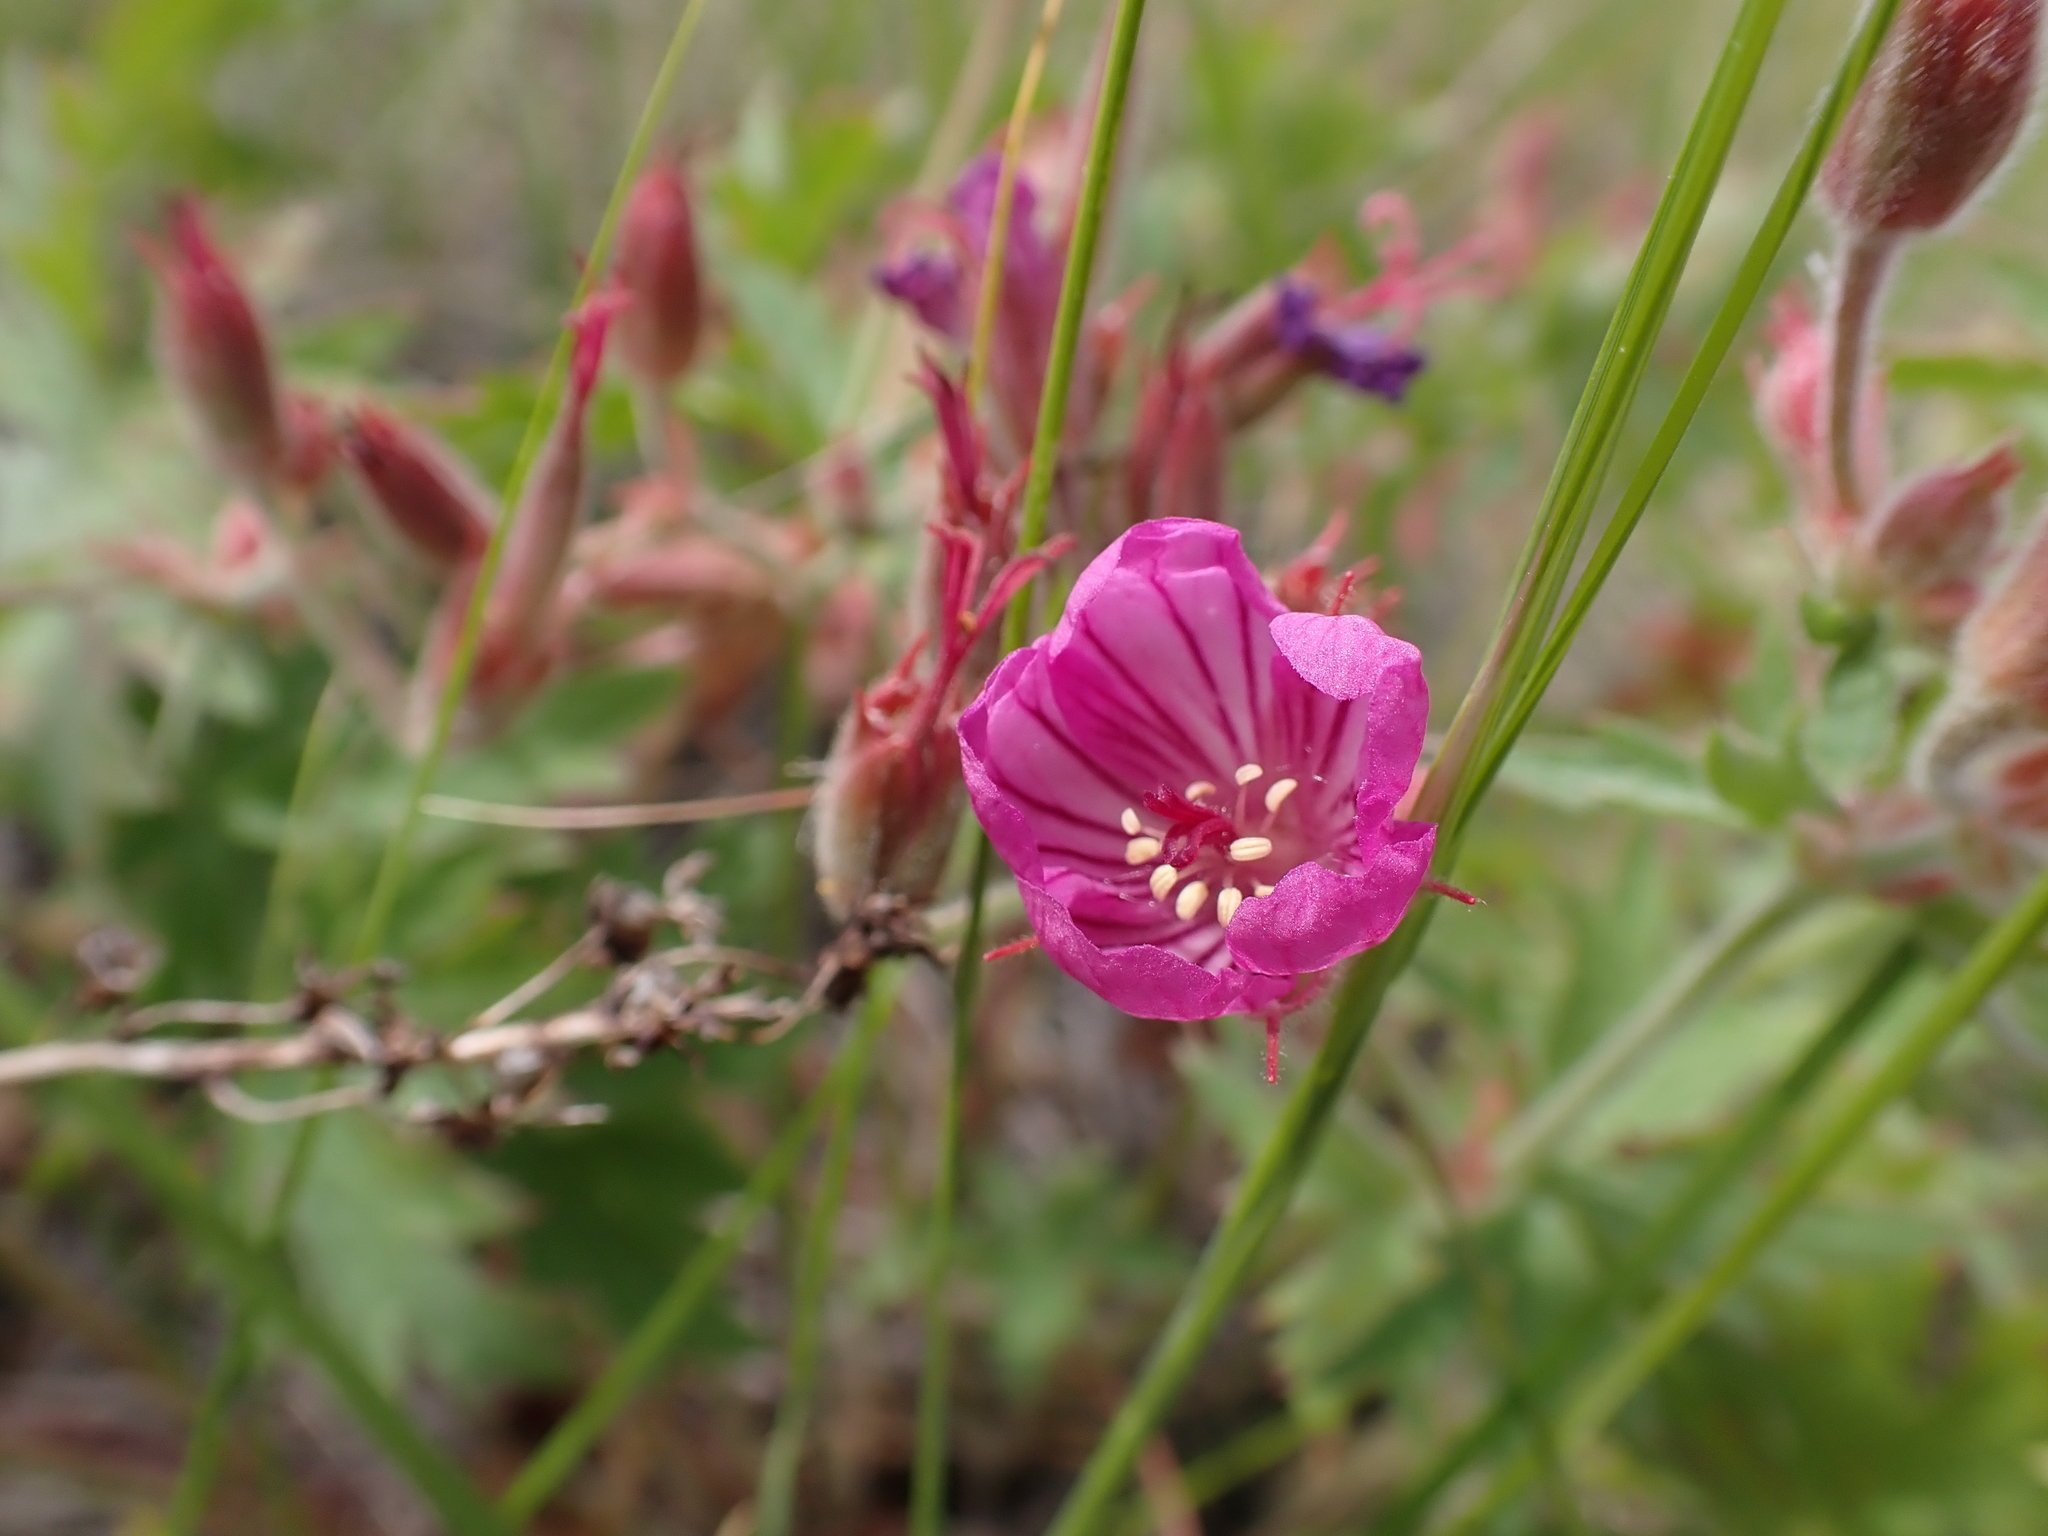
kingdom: Plantae
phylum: Tracheophyta
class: Magnoliopsida
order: Geraniales
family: Geraniaceae
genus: Geranium
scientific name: Geranium viscosissimum
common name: Purple geranium
